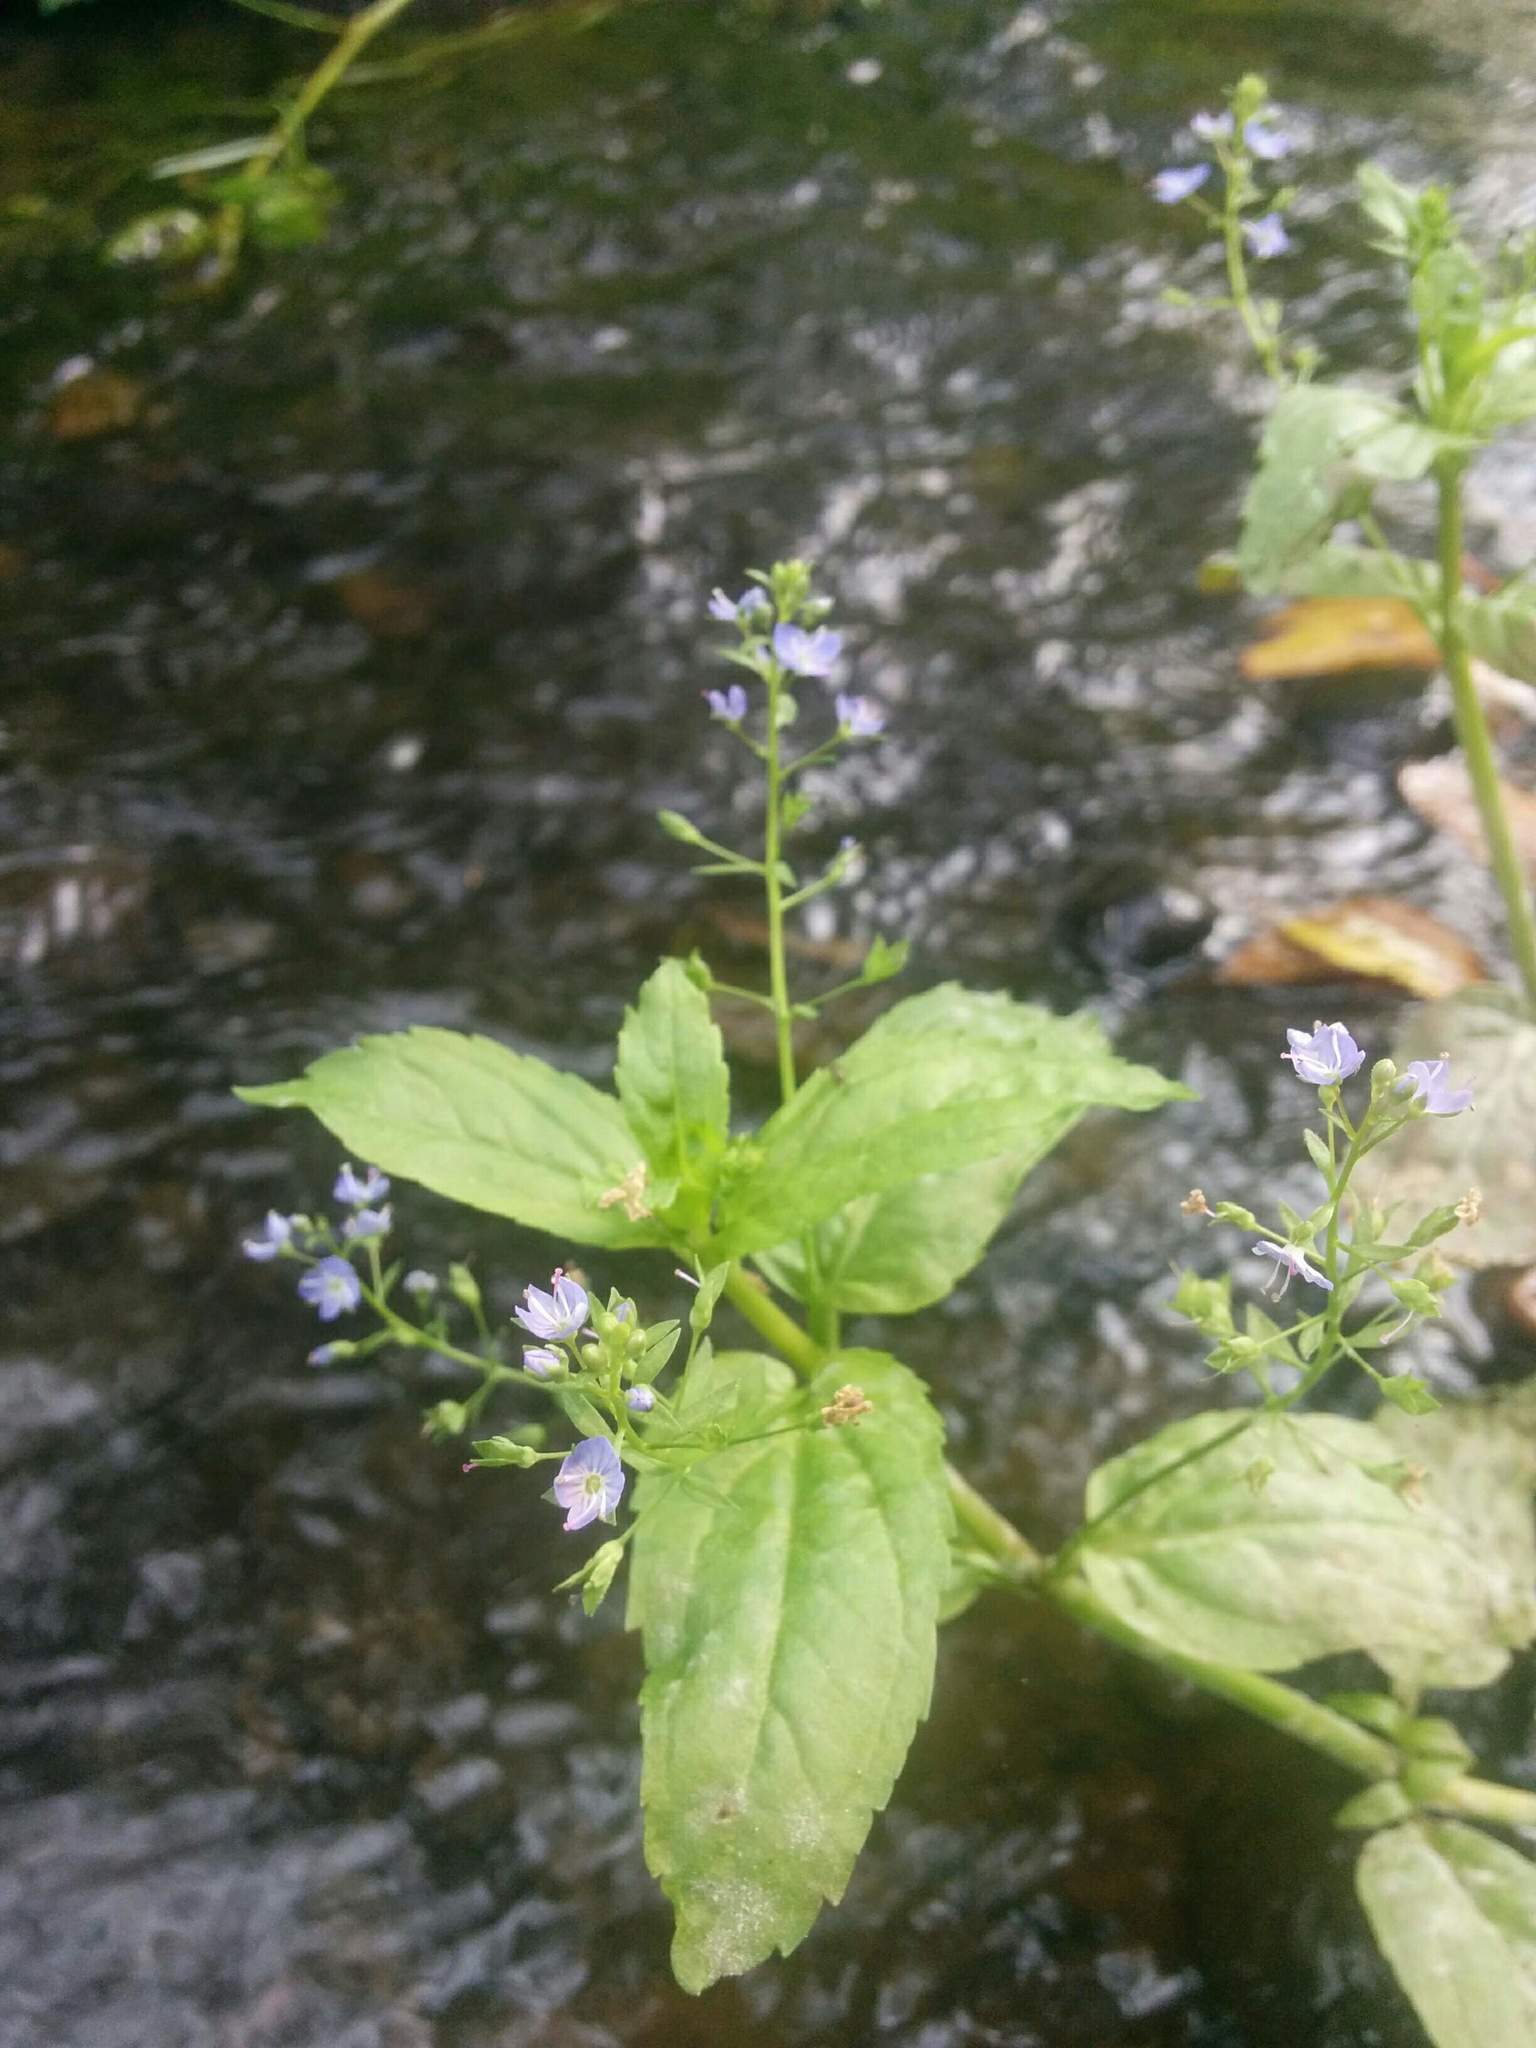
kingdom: Plantae
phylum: Tracheophyta
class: Magnoliopsida
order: Lamiales
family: Plantaginaceae
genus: Veronica
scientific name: Veronica americana
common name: American brooklime
